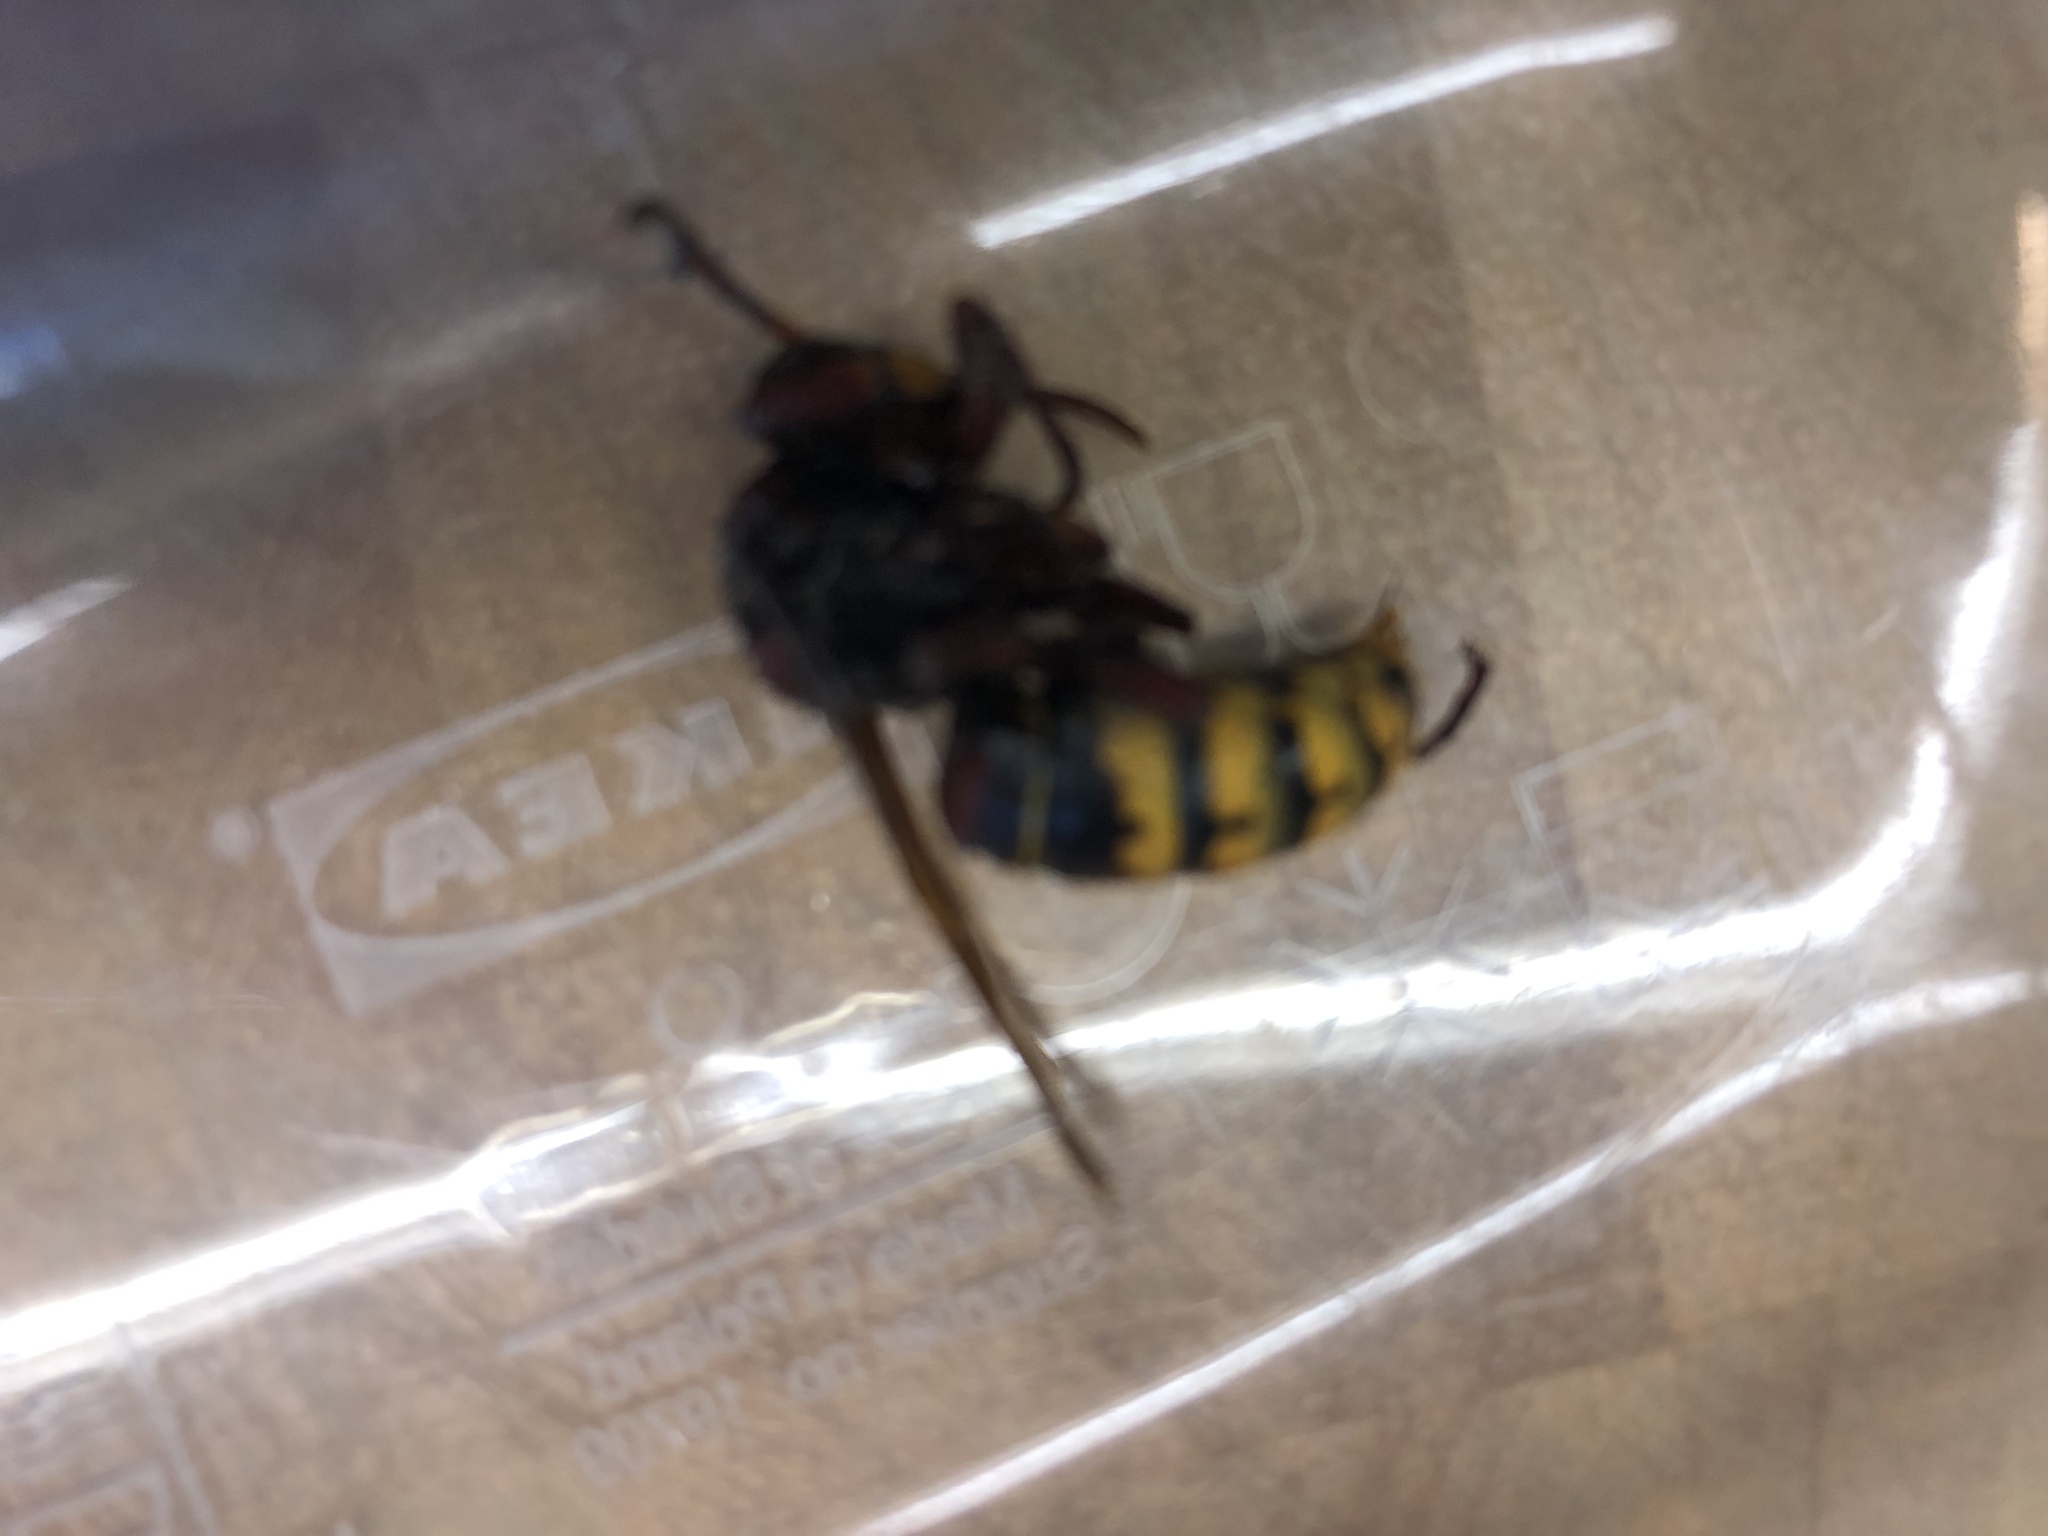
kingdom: Animalia
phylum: Arthropoda
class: Insecta
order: Hymenoptera
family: Vespidae
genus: Vespa
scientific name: Vespa crabro
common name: Hornet
